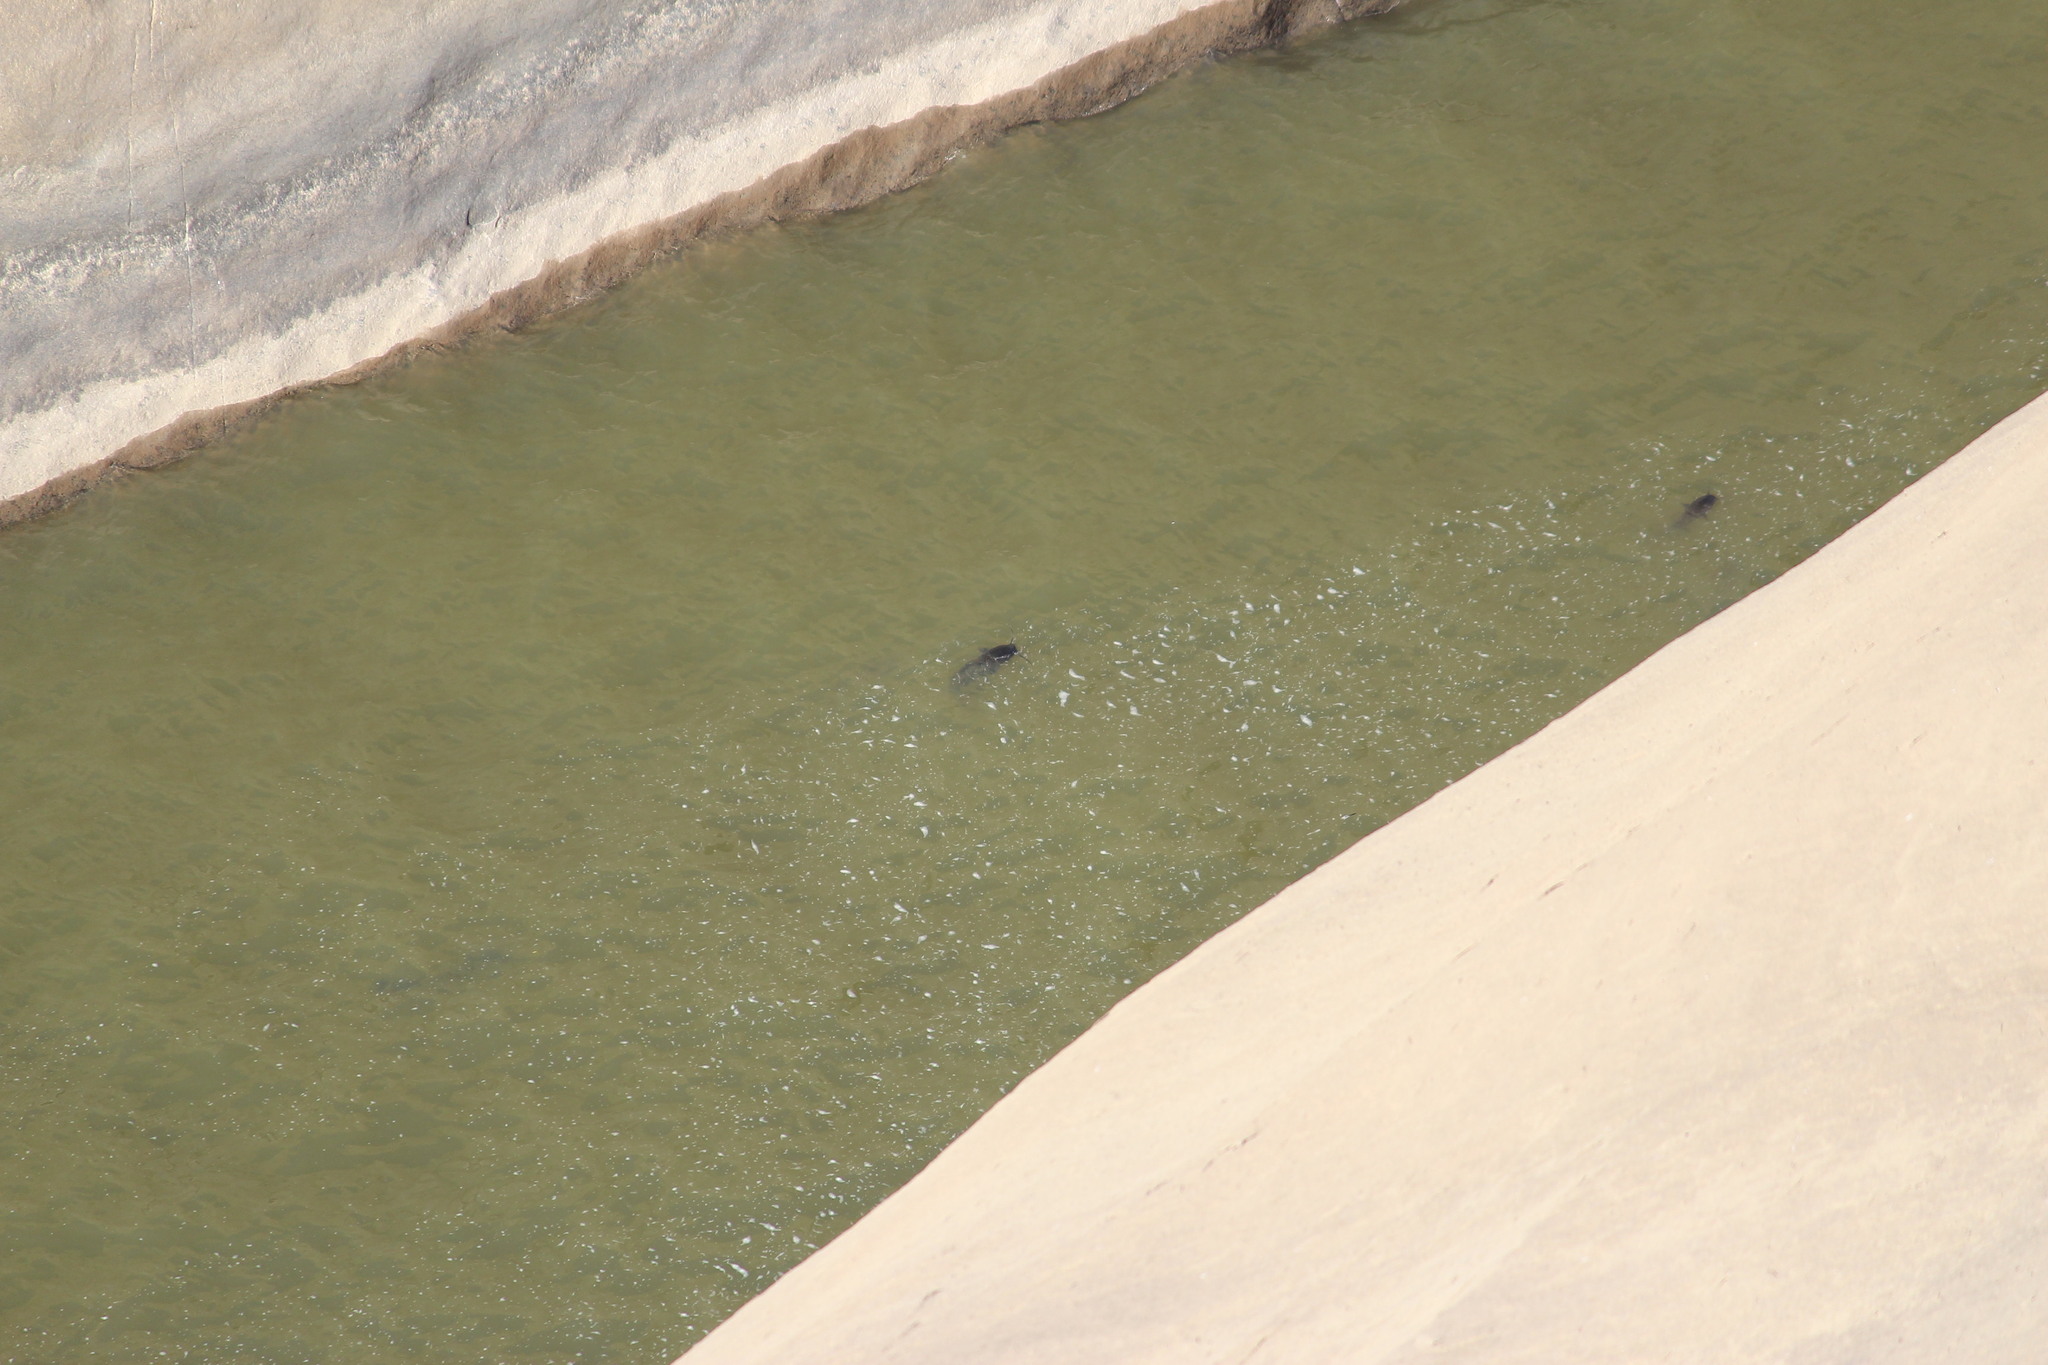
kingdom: Animalia
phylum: Chordata
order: Siluriformes
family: Clariidae
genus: Clarias
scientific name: Clarias gariepinus
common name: African catfish
